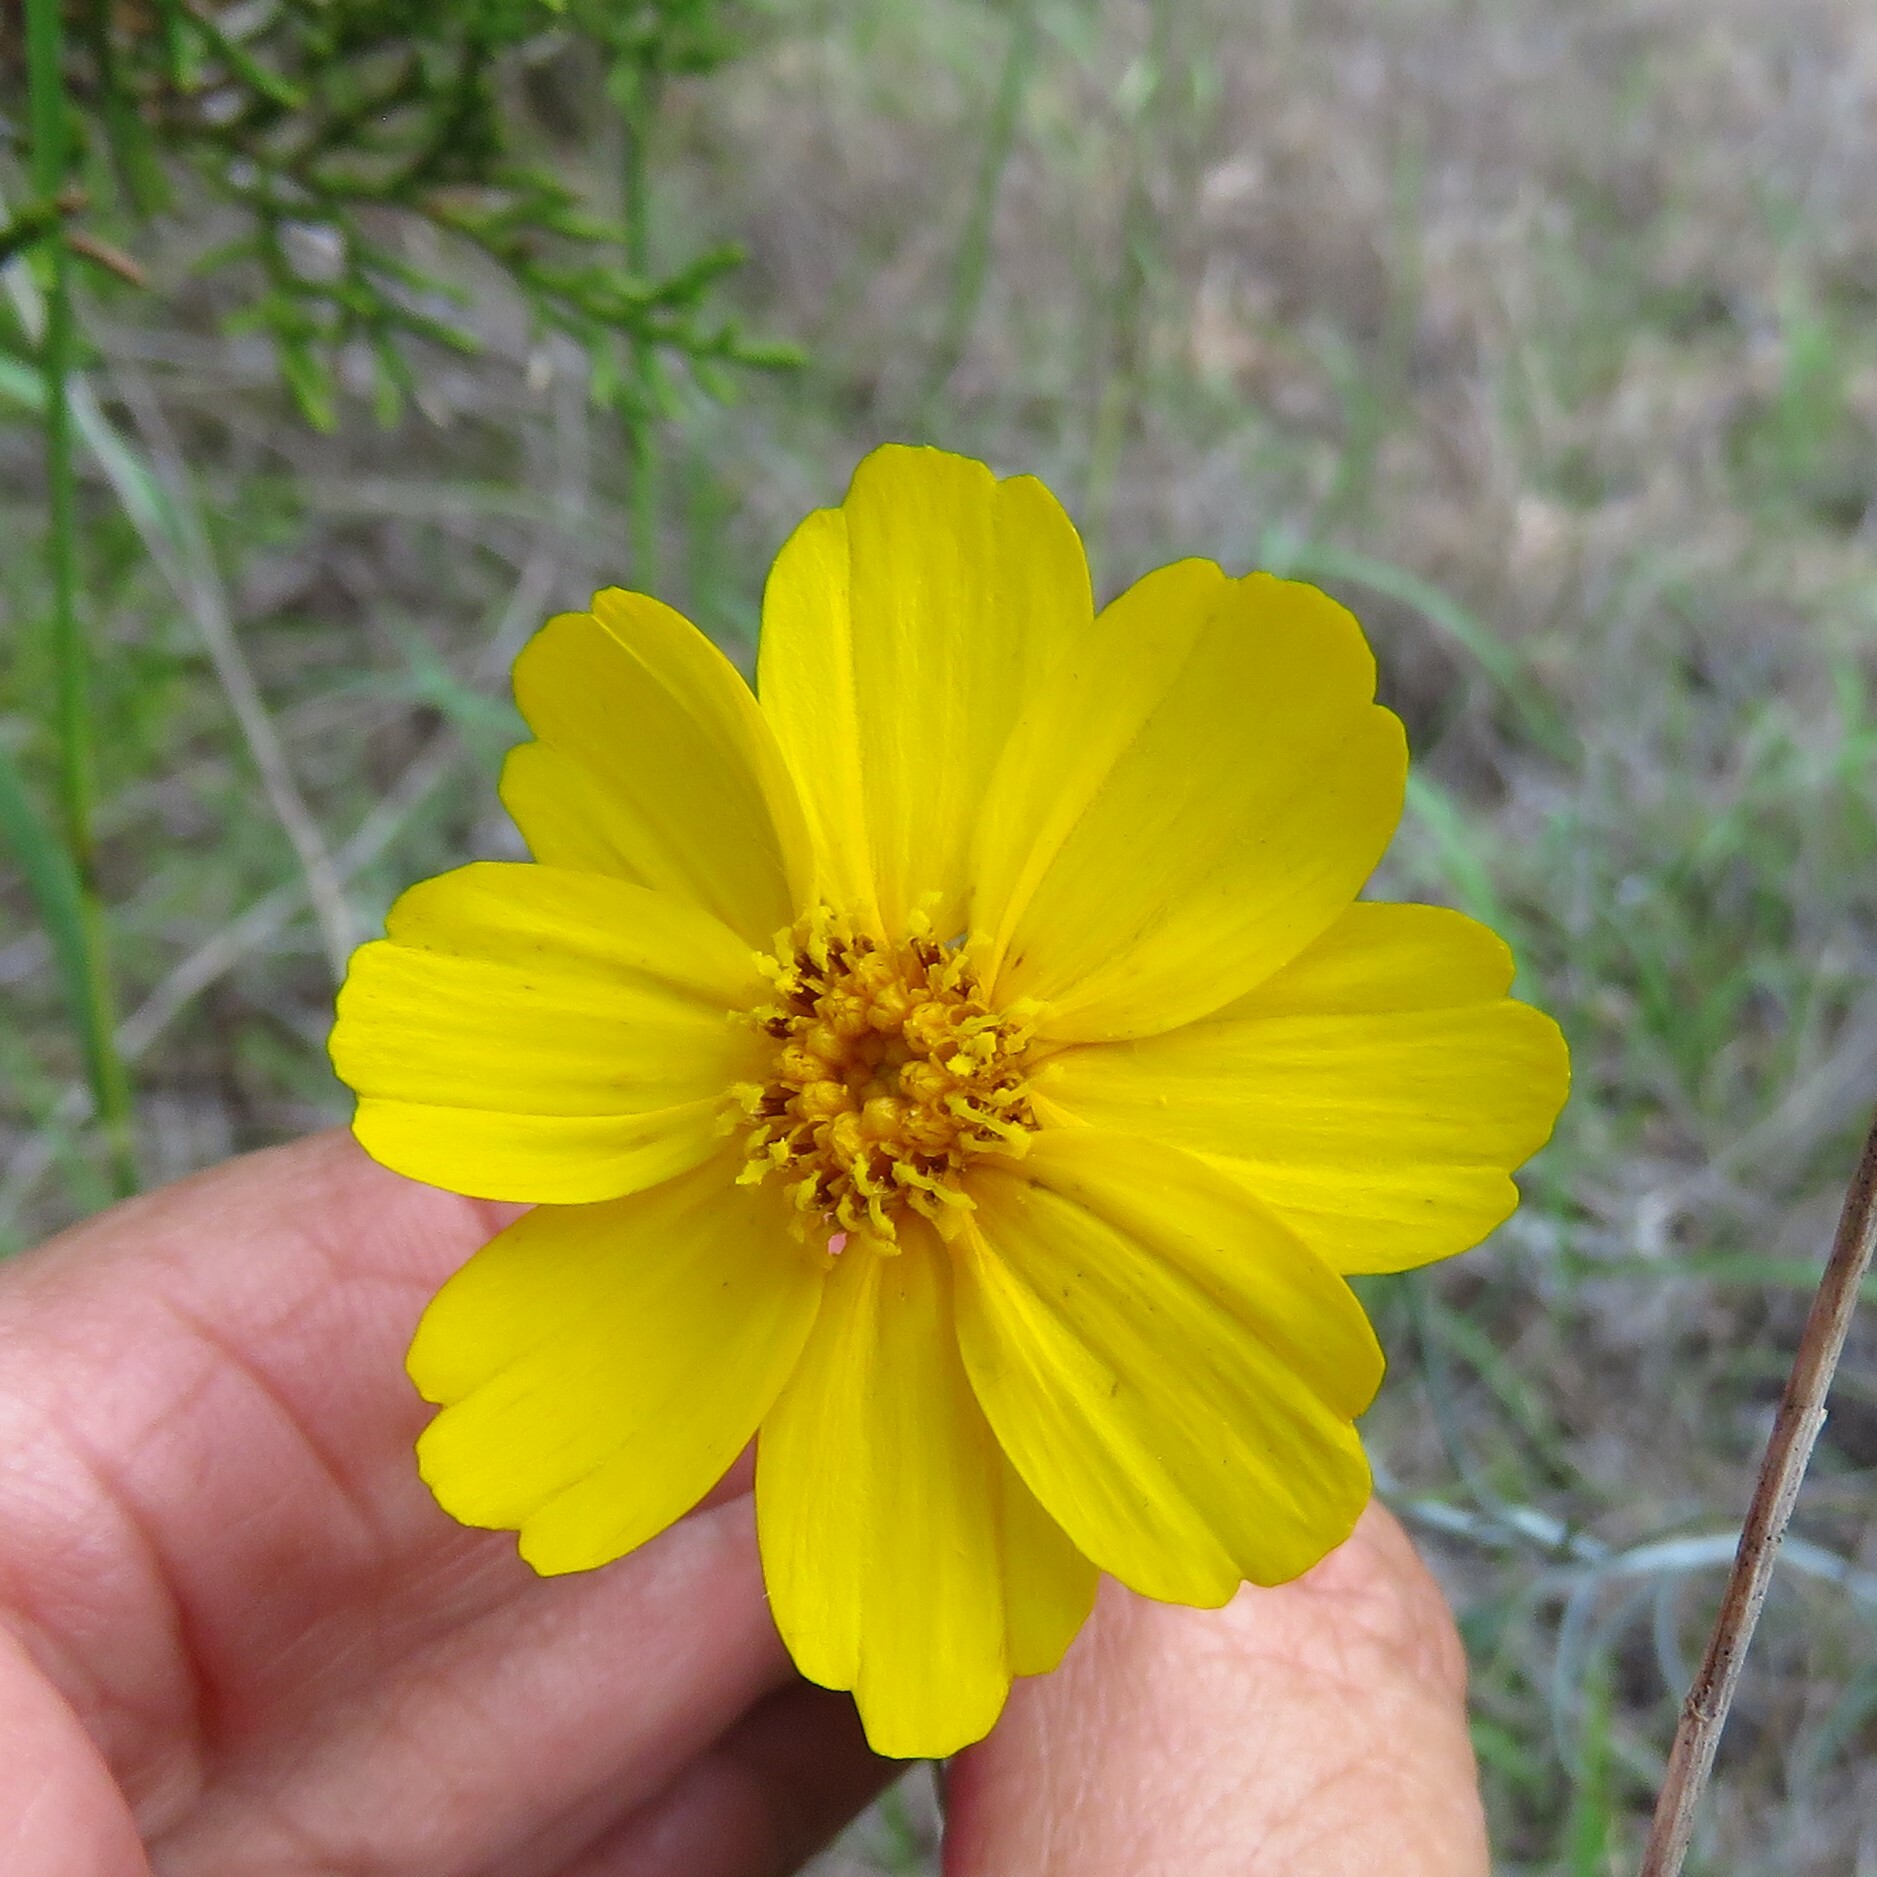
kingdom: Plantae
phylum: Tracheophyta
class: Magnoliopsida
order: Asterales
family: Asteraceae
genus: Thelesperma
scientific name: Thelesperma simplicifolium
